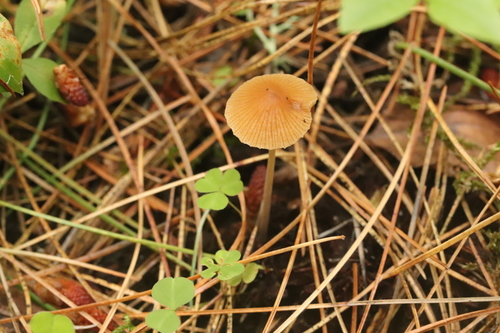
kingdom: Fungi
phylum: Basidiomycota
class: Agaricomycetes
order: Agaricales
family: Bolbitiaceae
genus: Conocybe
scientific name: Conocybe filipes
